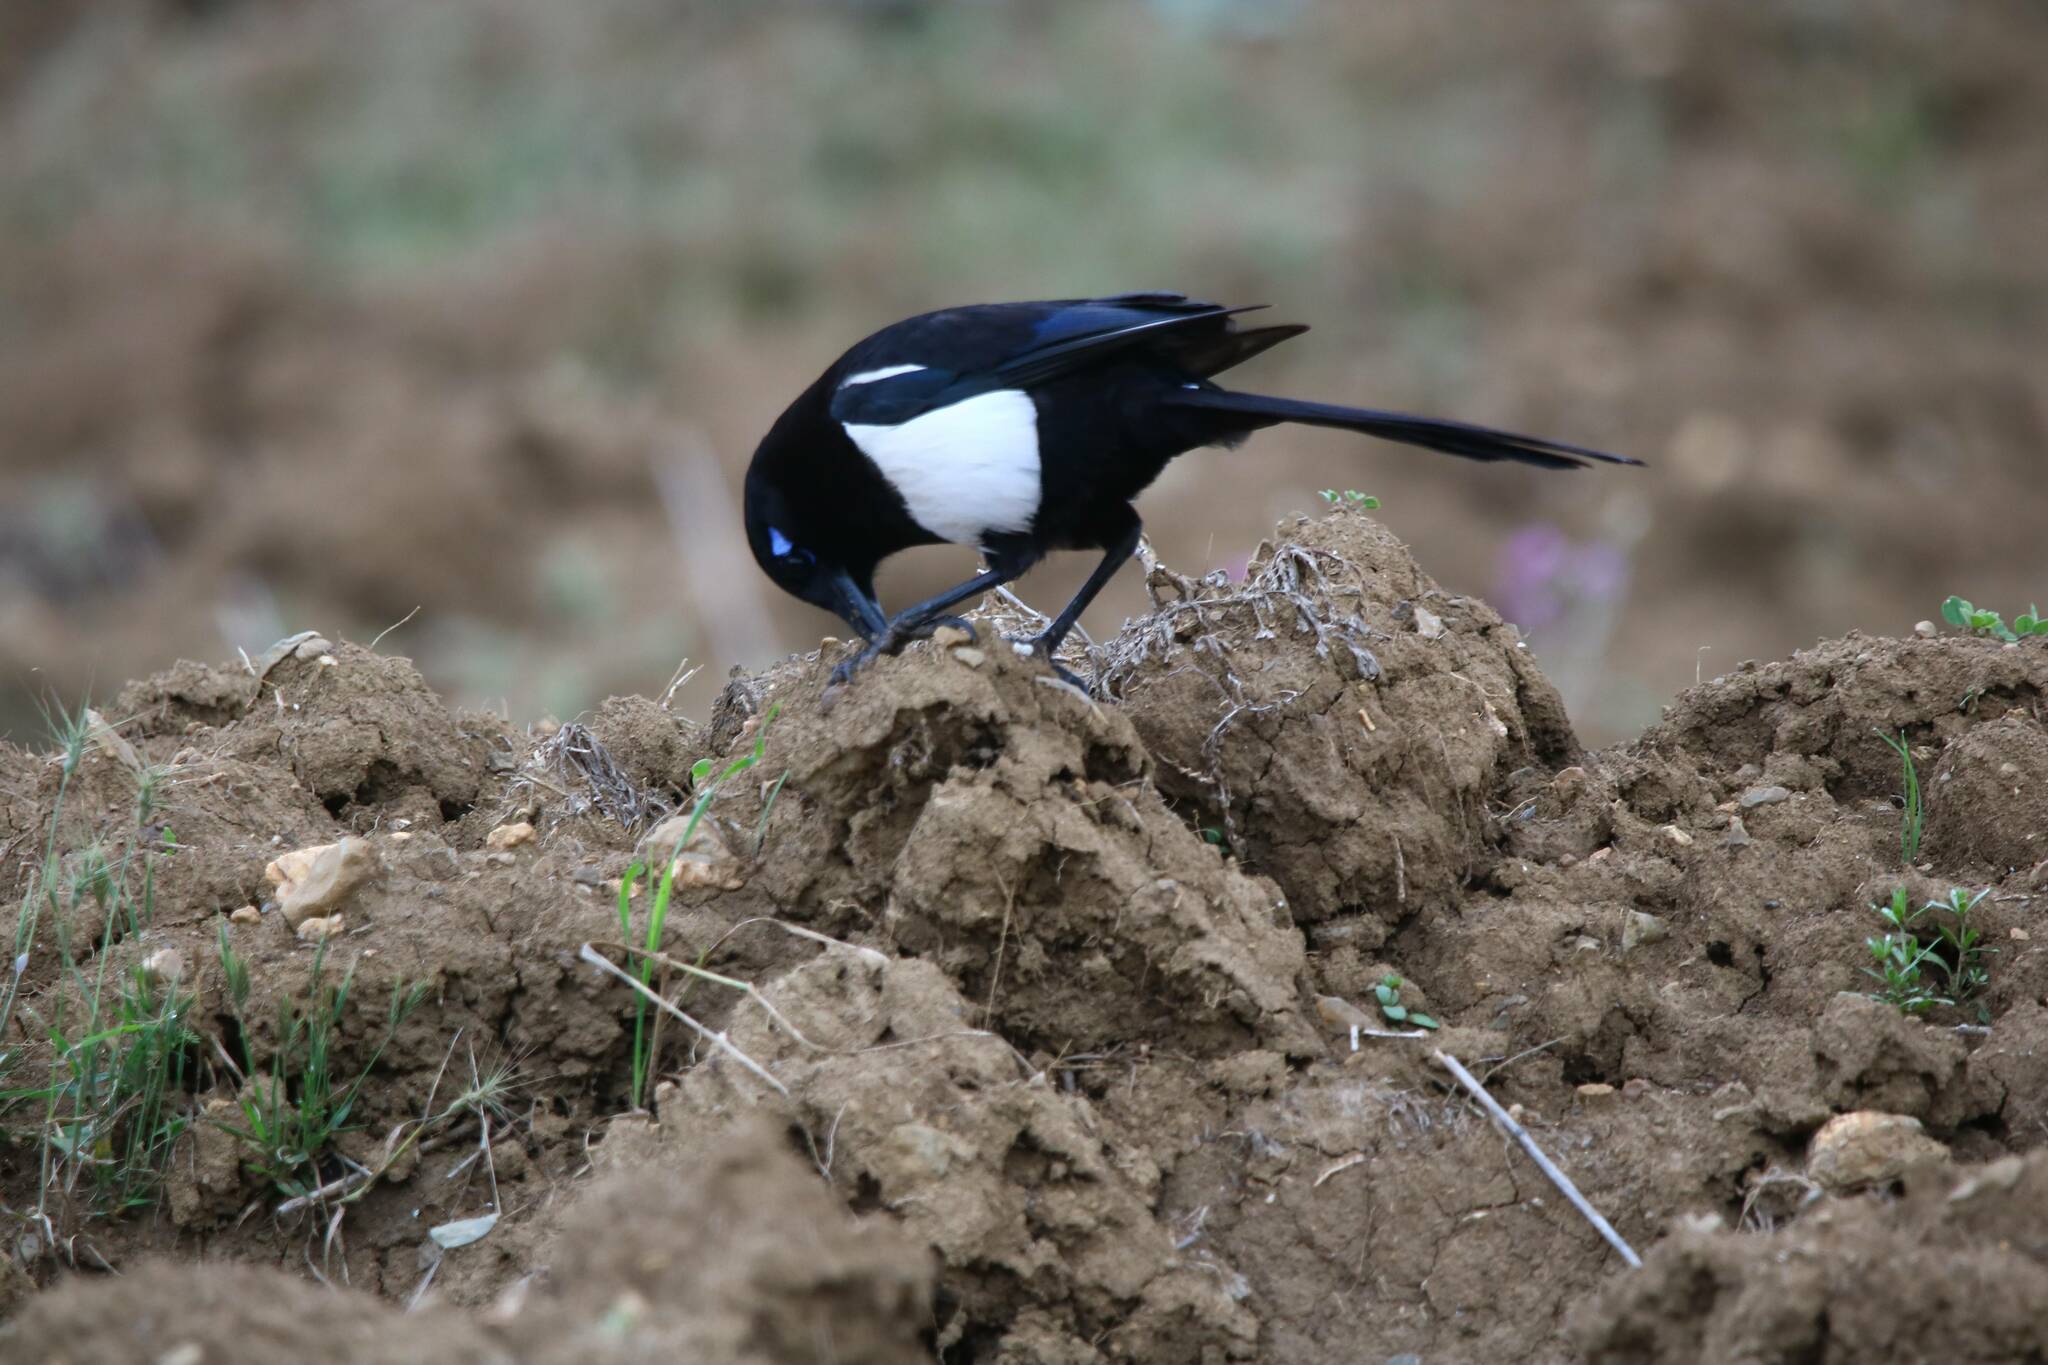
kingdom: Animalia
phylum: Chordata
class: Aves
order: Passeriformes
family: Corvidae
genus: Pica
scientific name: Pica mauritanica
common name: Maghreb magpie
